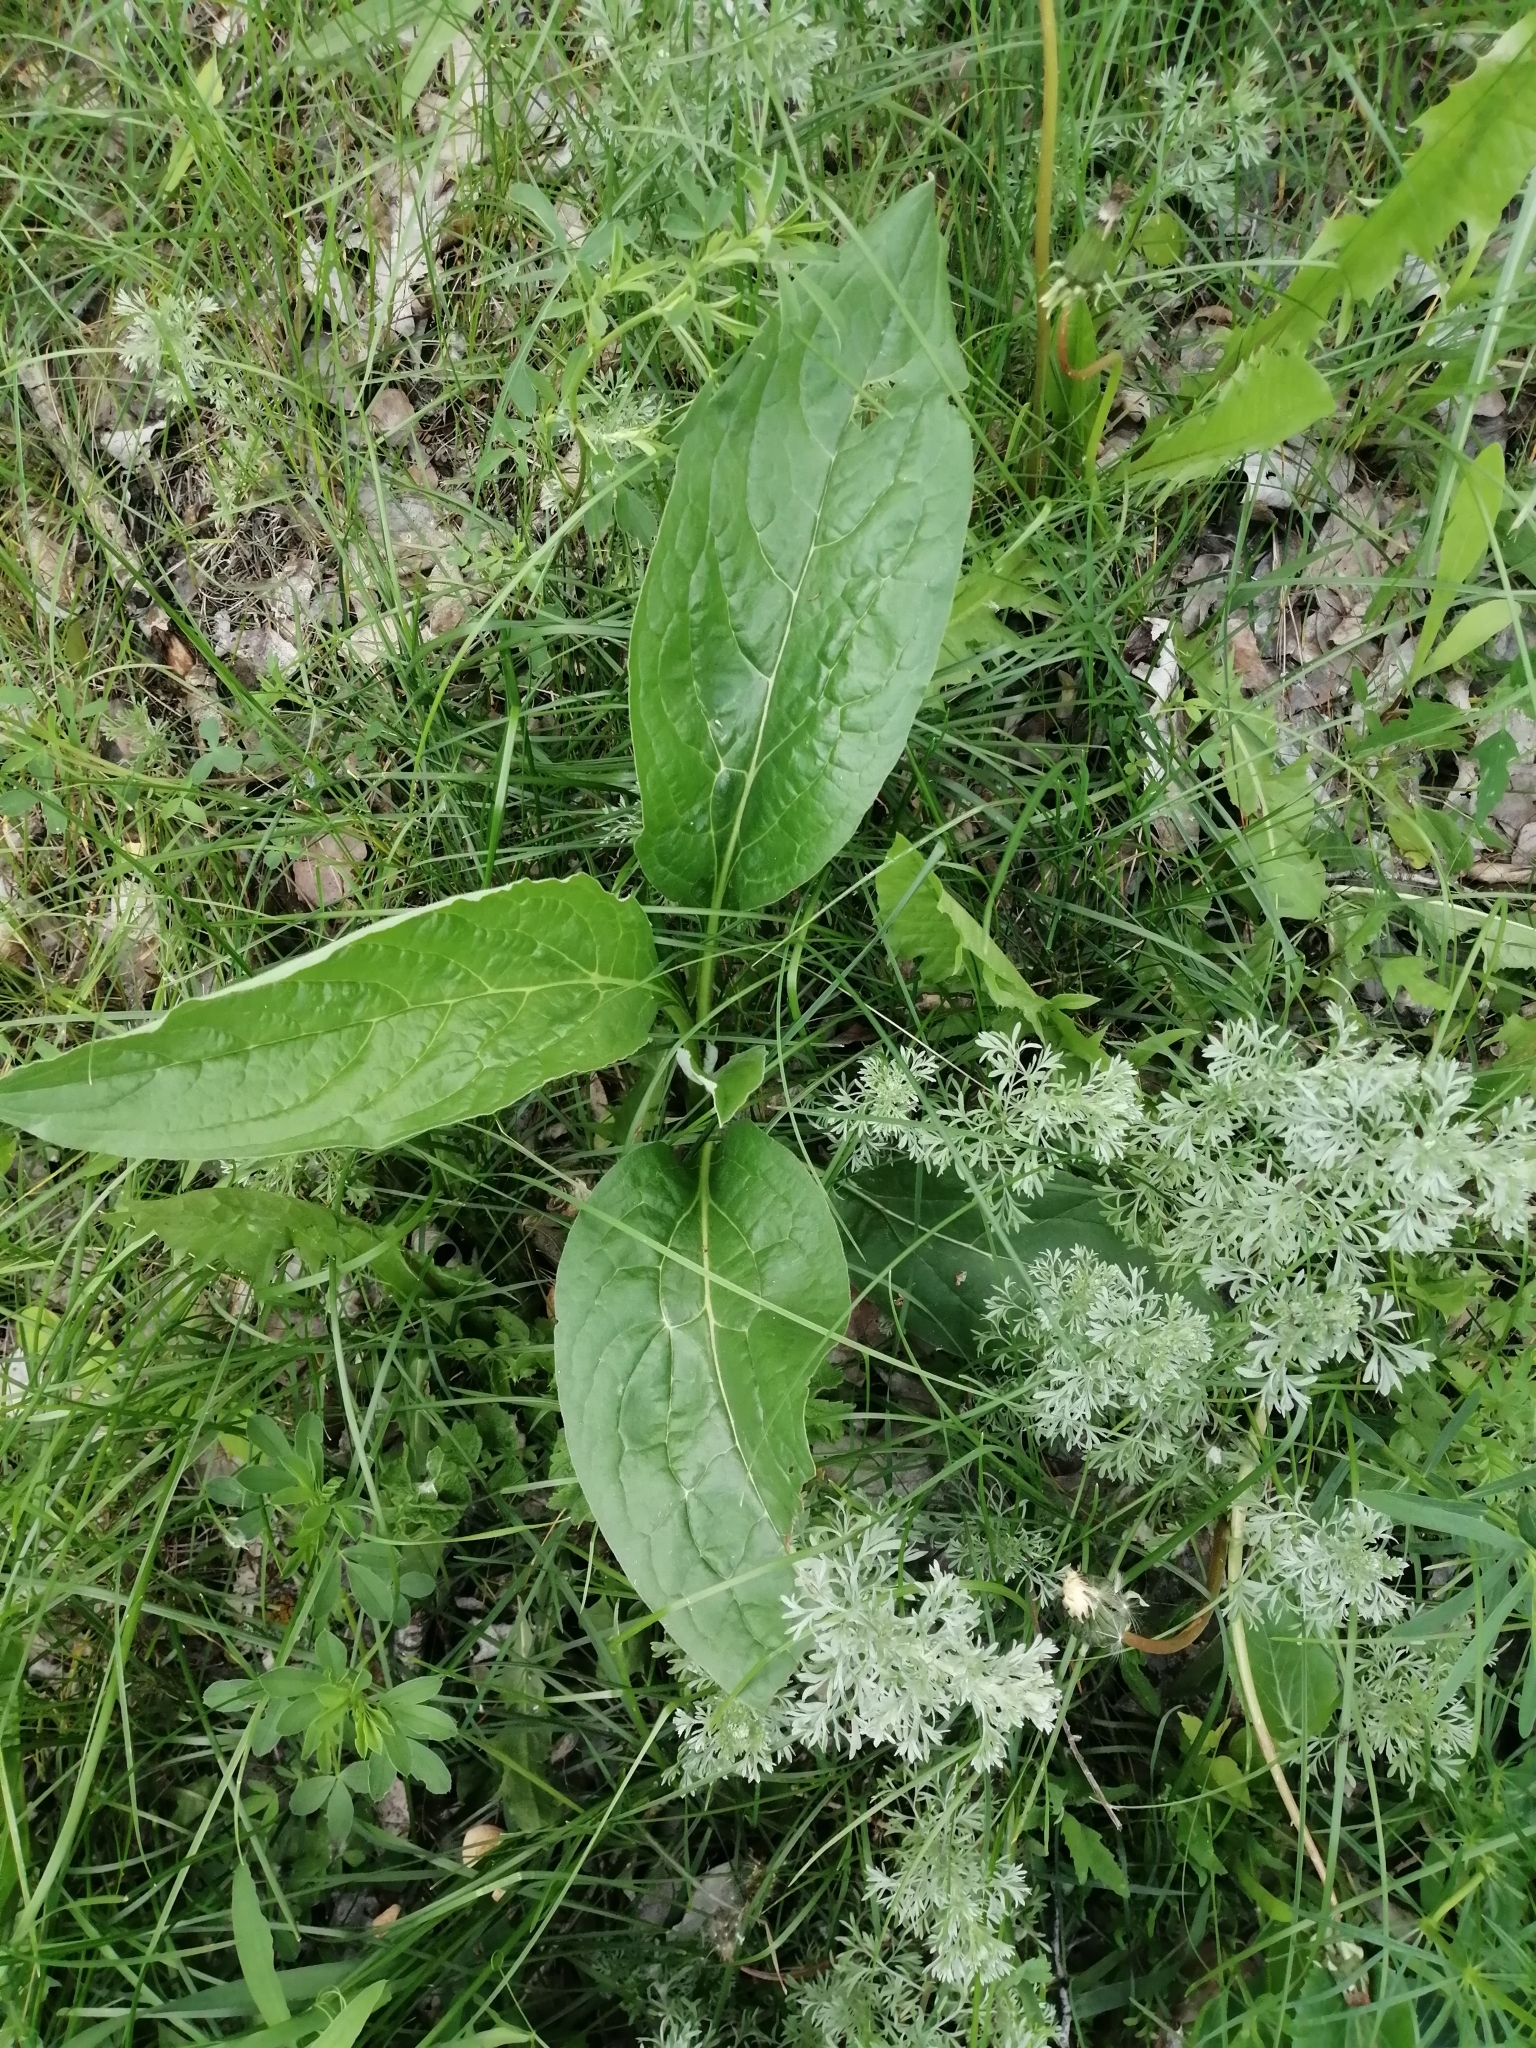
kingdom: Plantae
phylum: Tracheophyta
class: Magnoliopsida
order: Boraginales
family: Boraginaceae
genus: Cynoglossum
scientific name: Cynoglossum officinale
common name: Hound's-tongue
